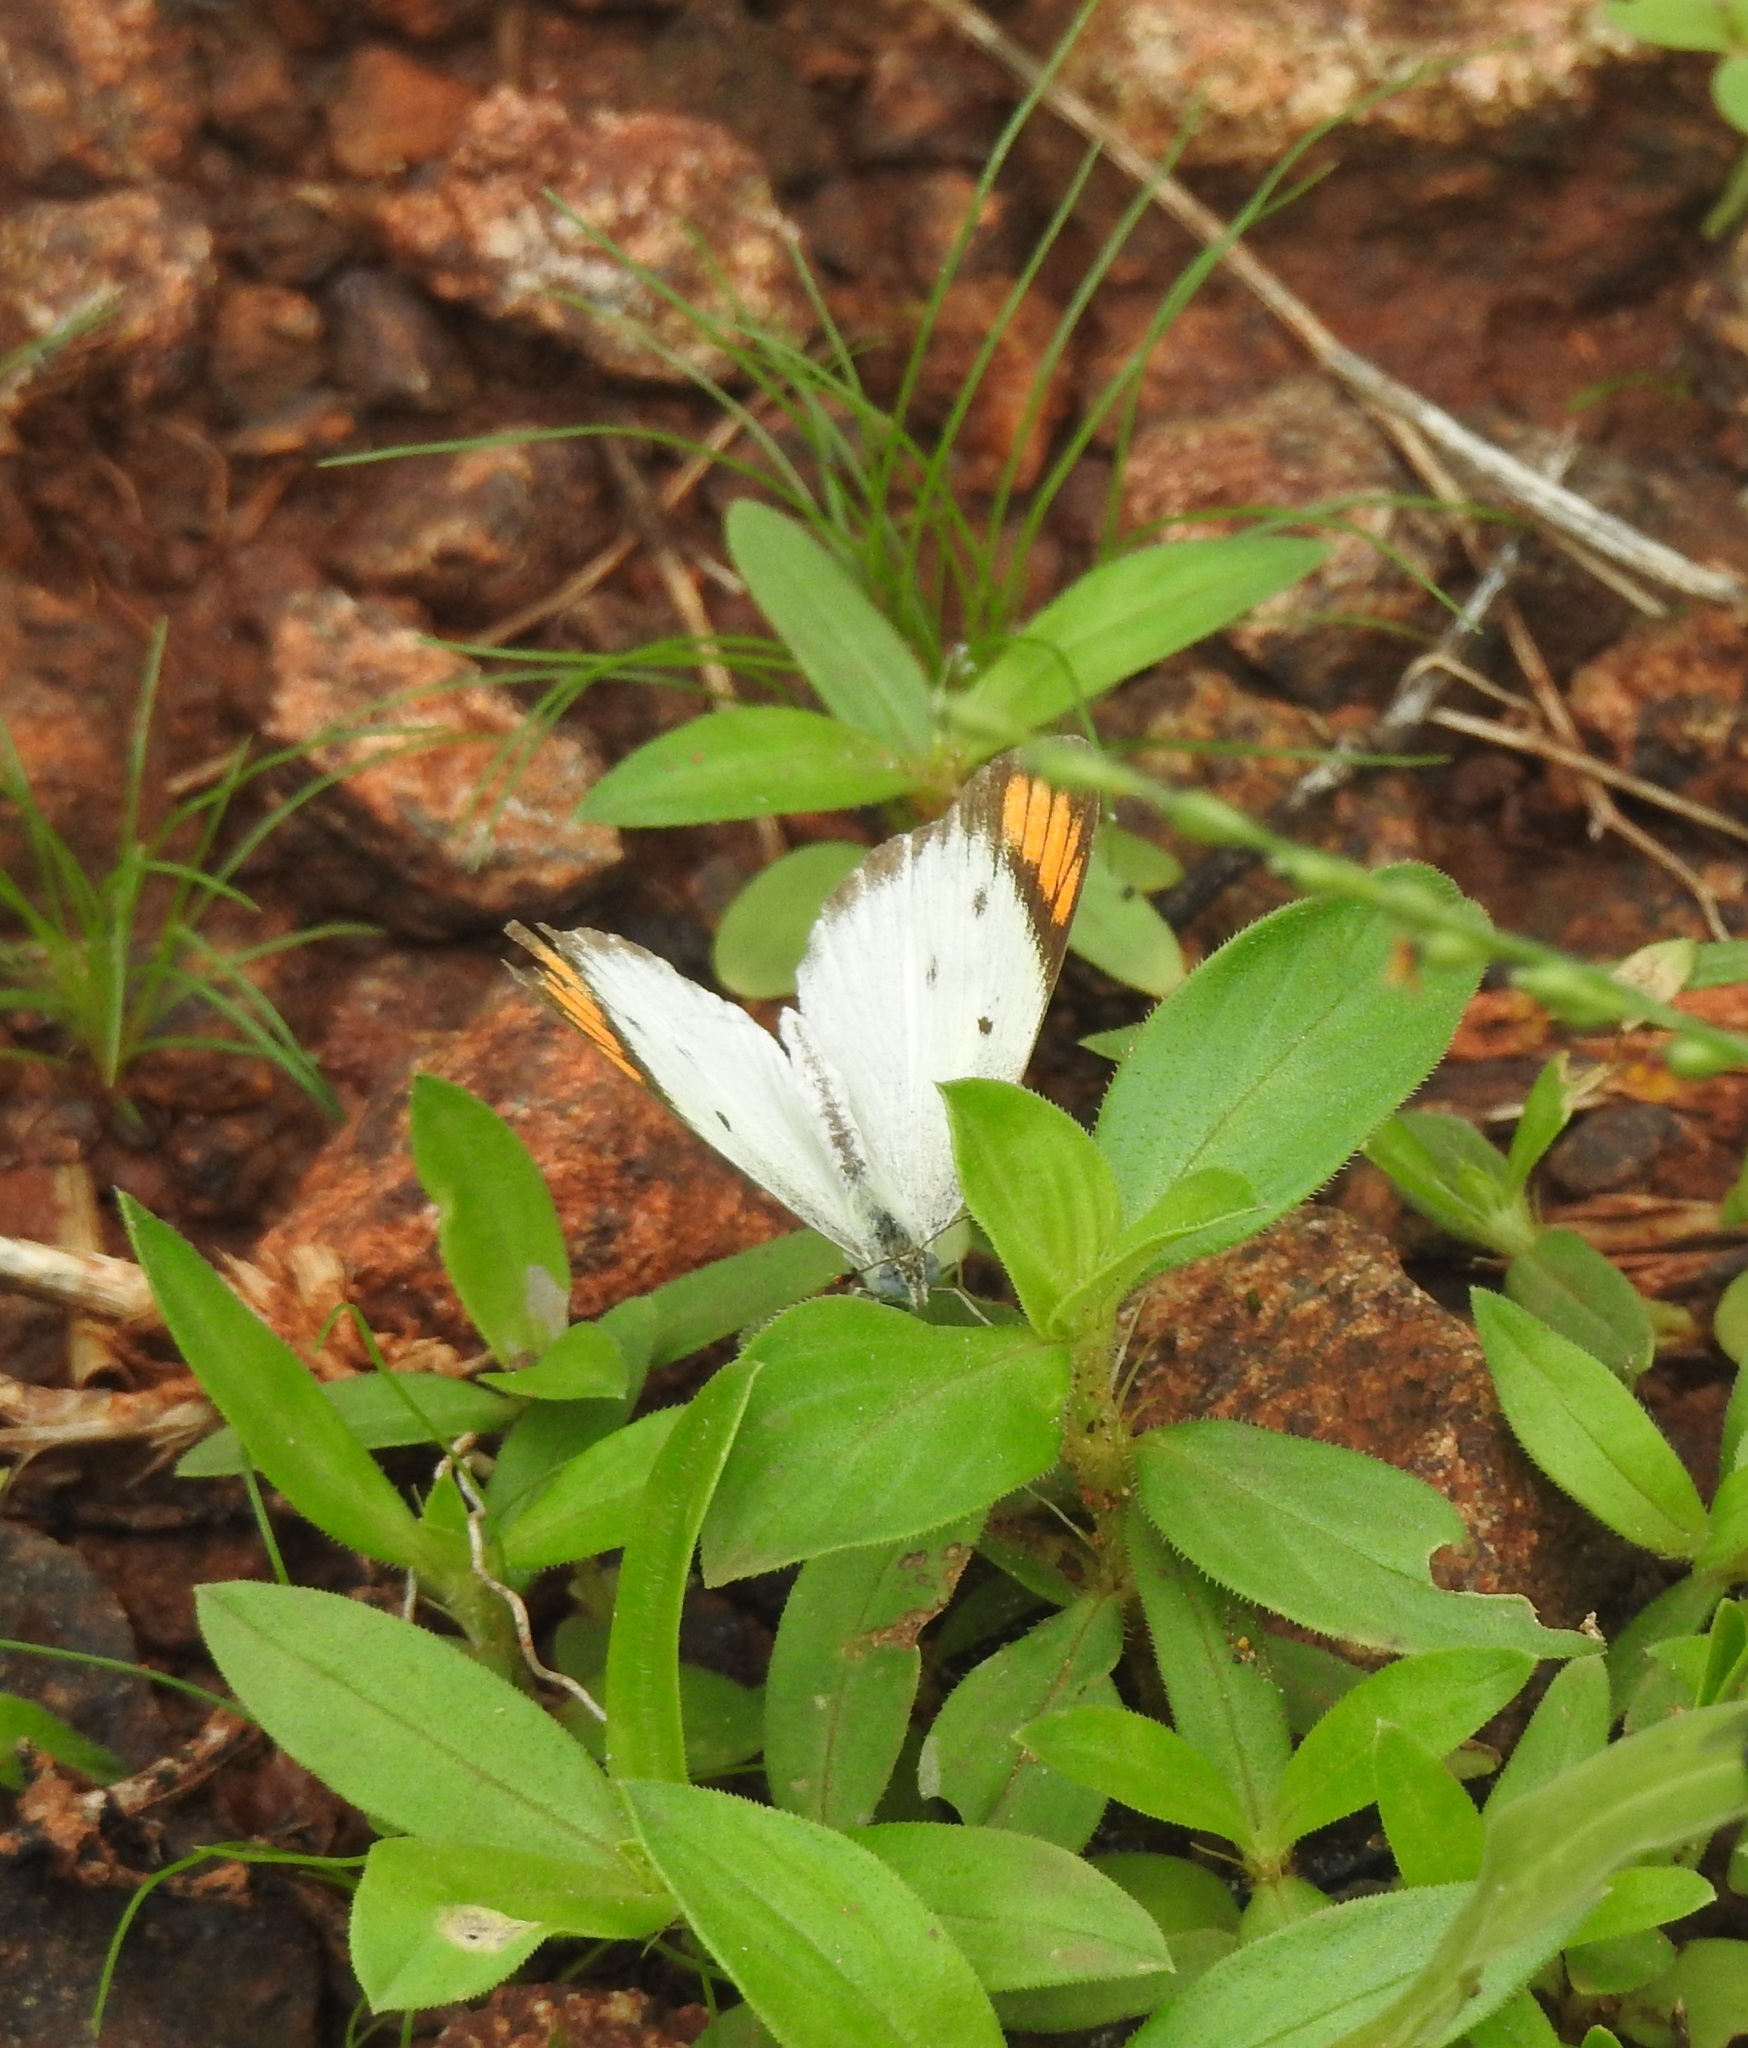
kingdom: Animalia
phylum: Arthropoda
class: Insecta
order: Lepidoptera
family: Pieridae
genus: Colotis
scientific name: Colotis etrida
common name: Little orange tip
